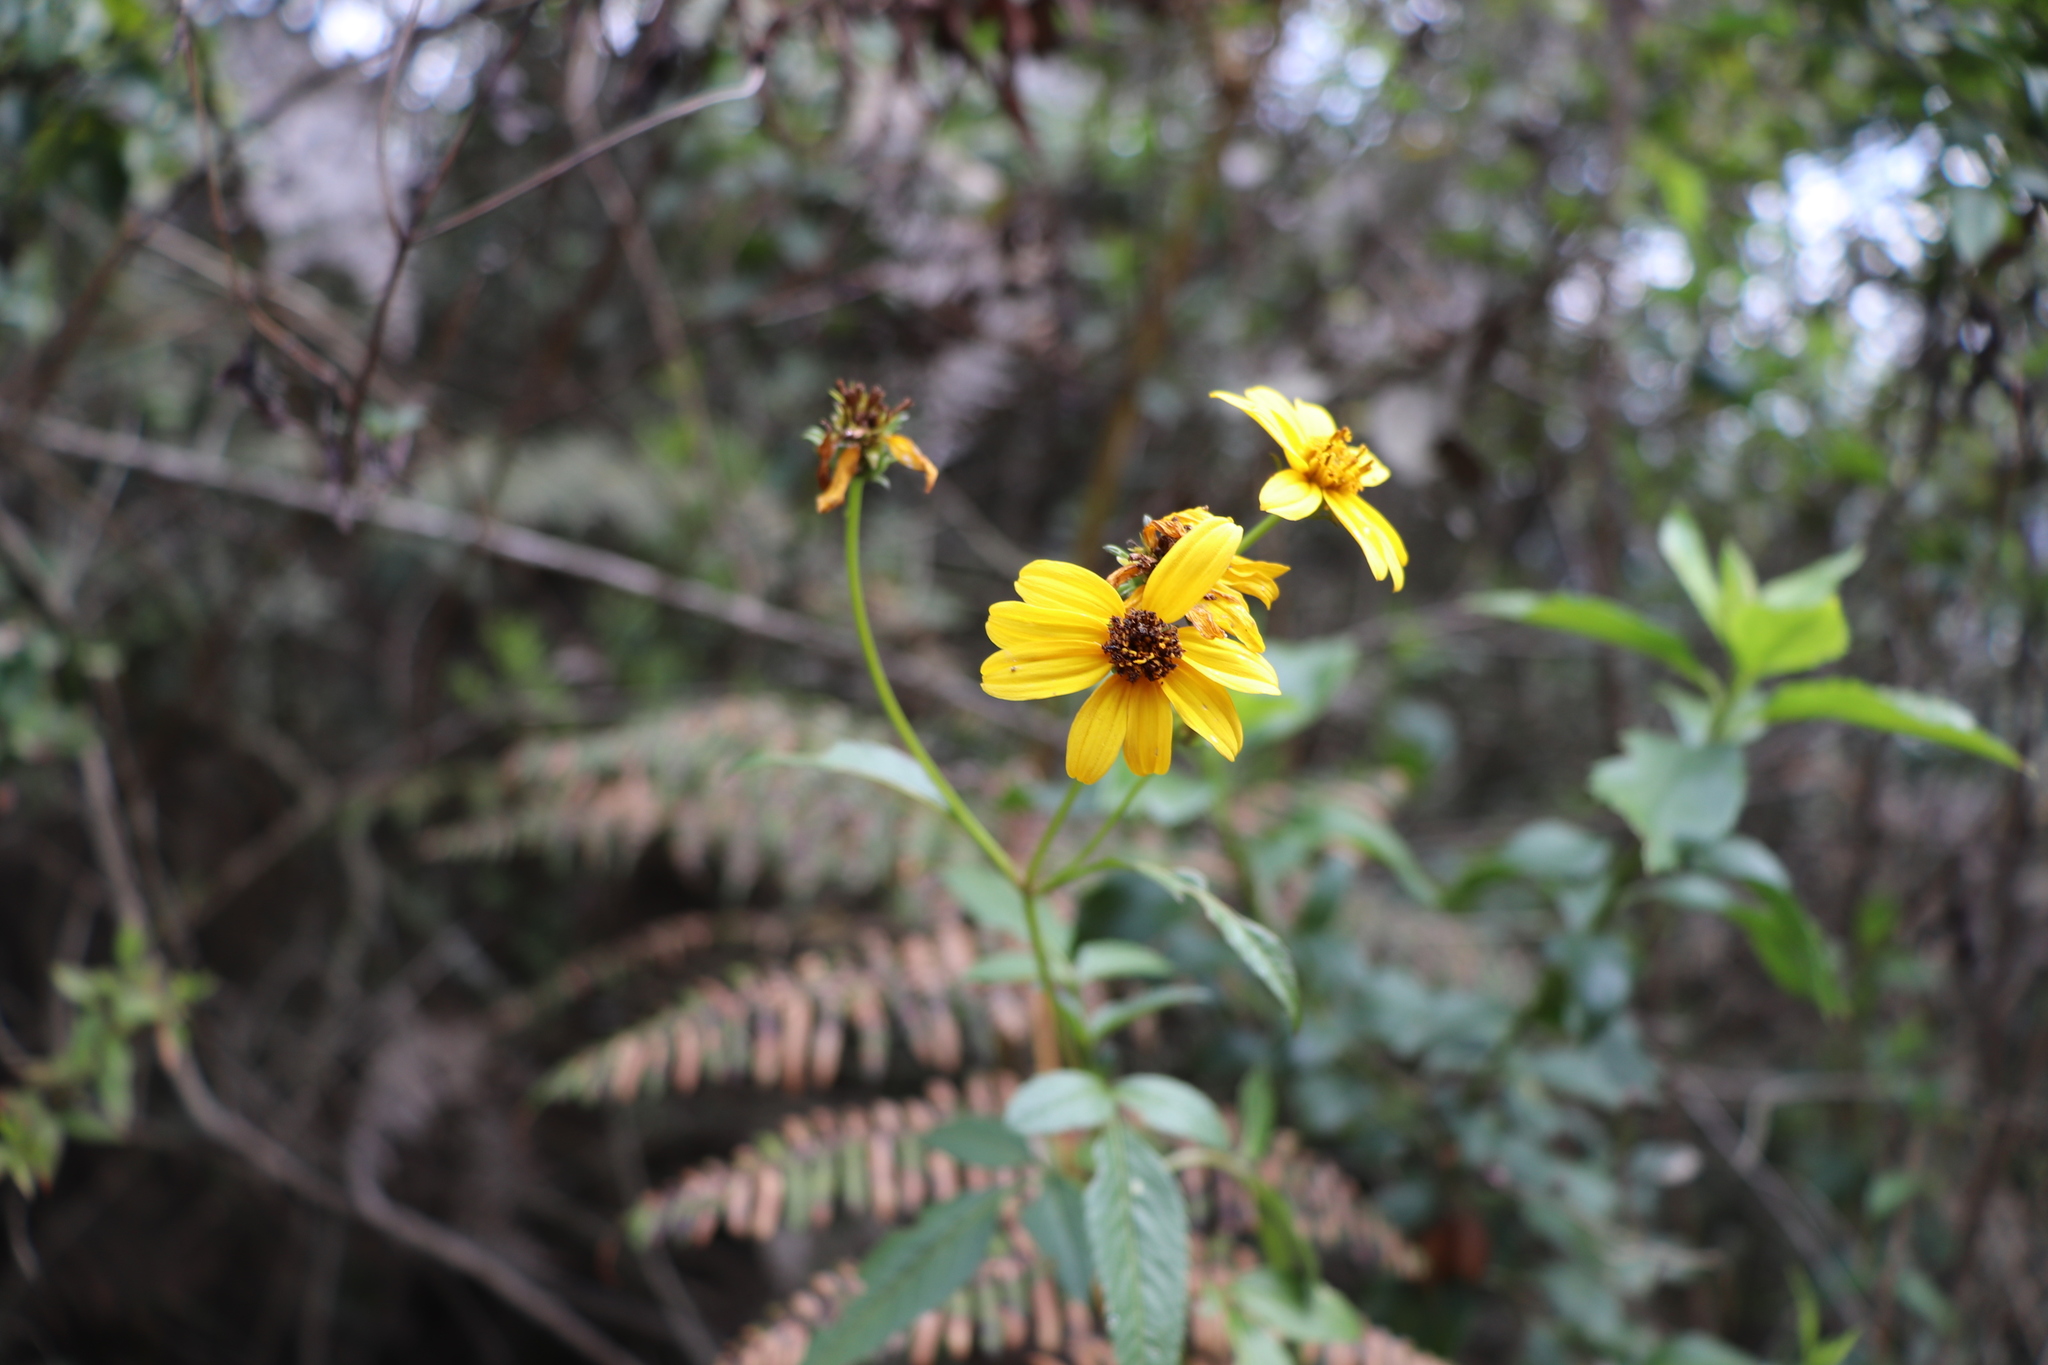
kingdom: Plantae
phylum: Tracheophyta
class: Magnoliopsida
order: Asterales
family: Asteraceae
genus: Bidens
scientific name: Bidens rubifolia
